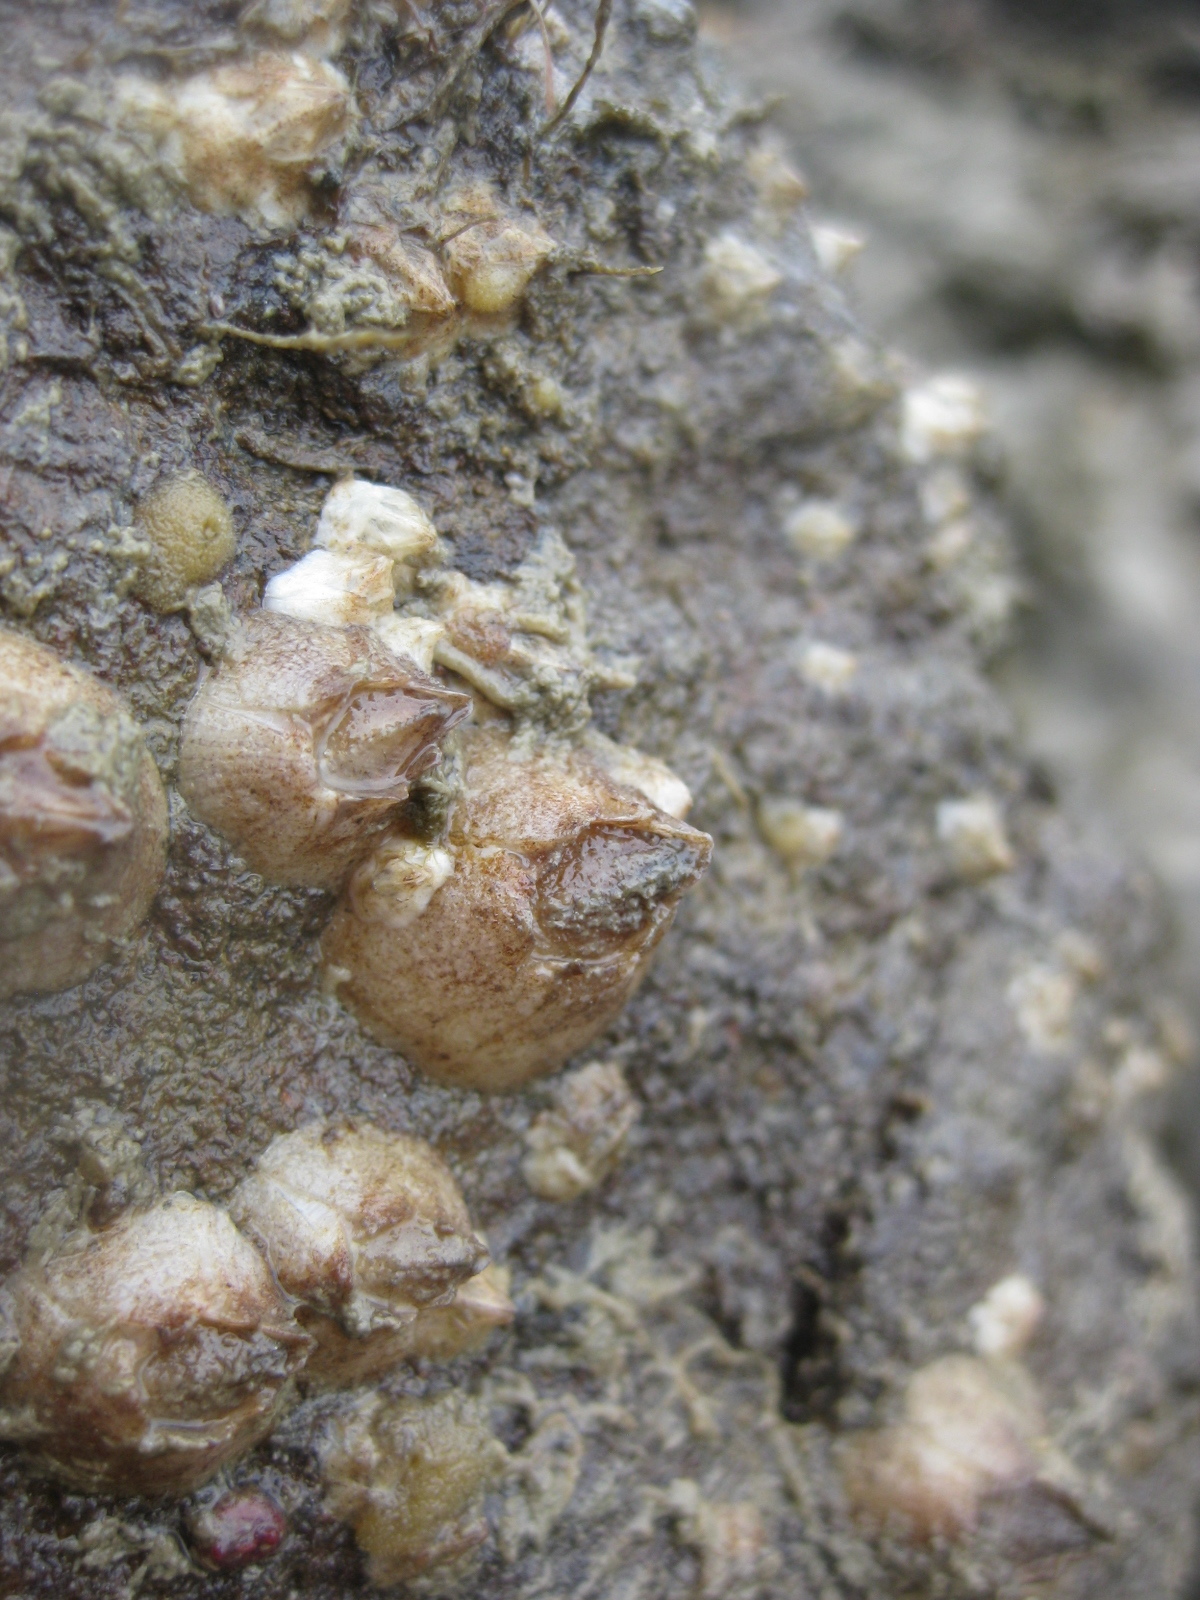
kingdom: Animalia
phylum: Arthropoda
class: Maxillopoda
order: Sessilia
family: Balanidae
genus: Fistulobalanus
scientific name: Fistulobalanus kondakovi
